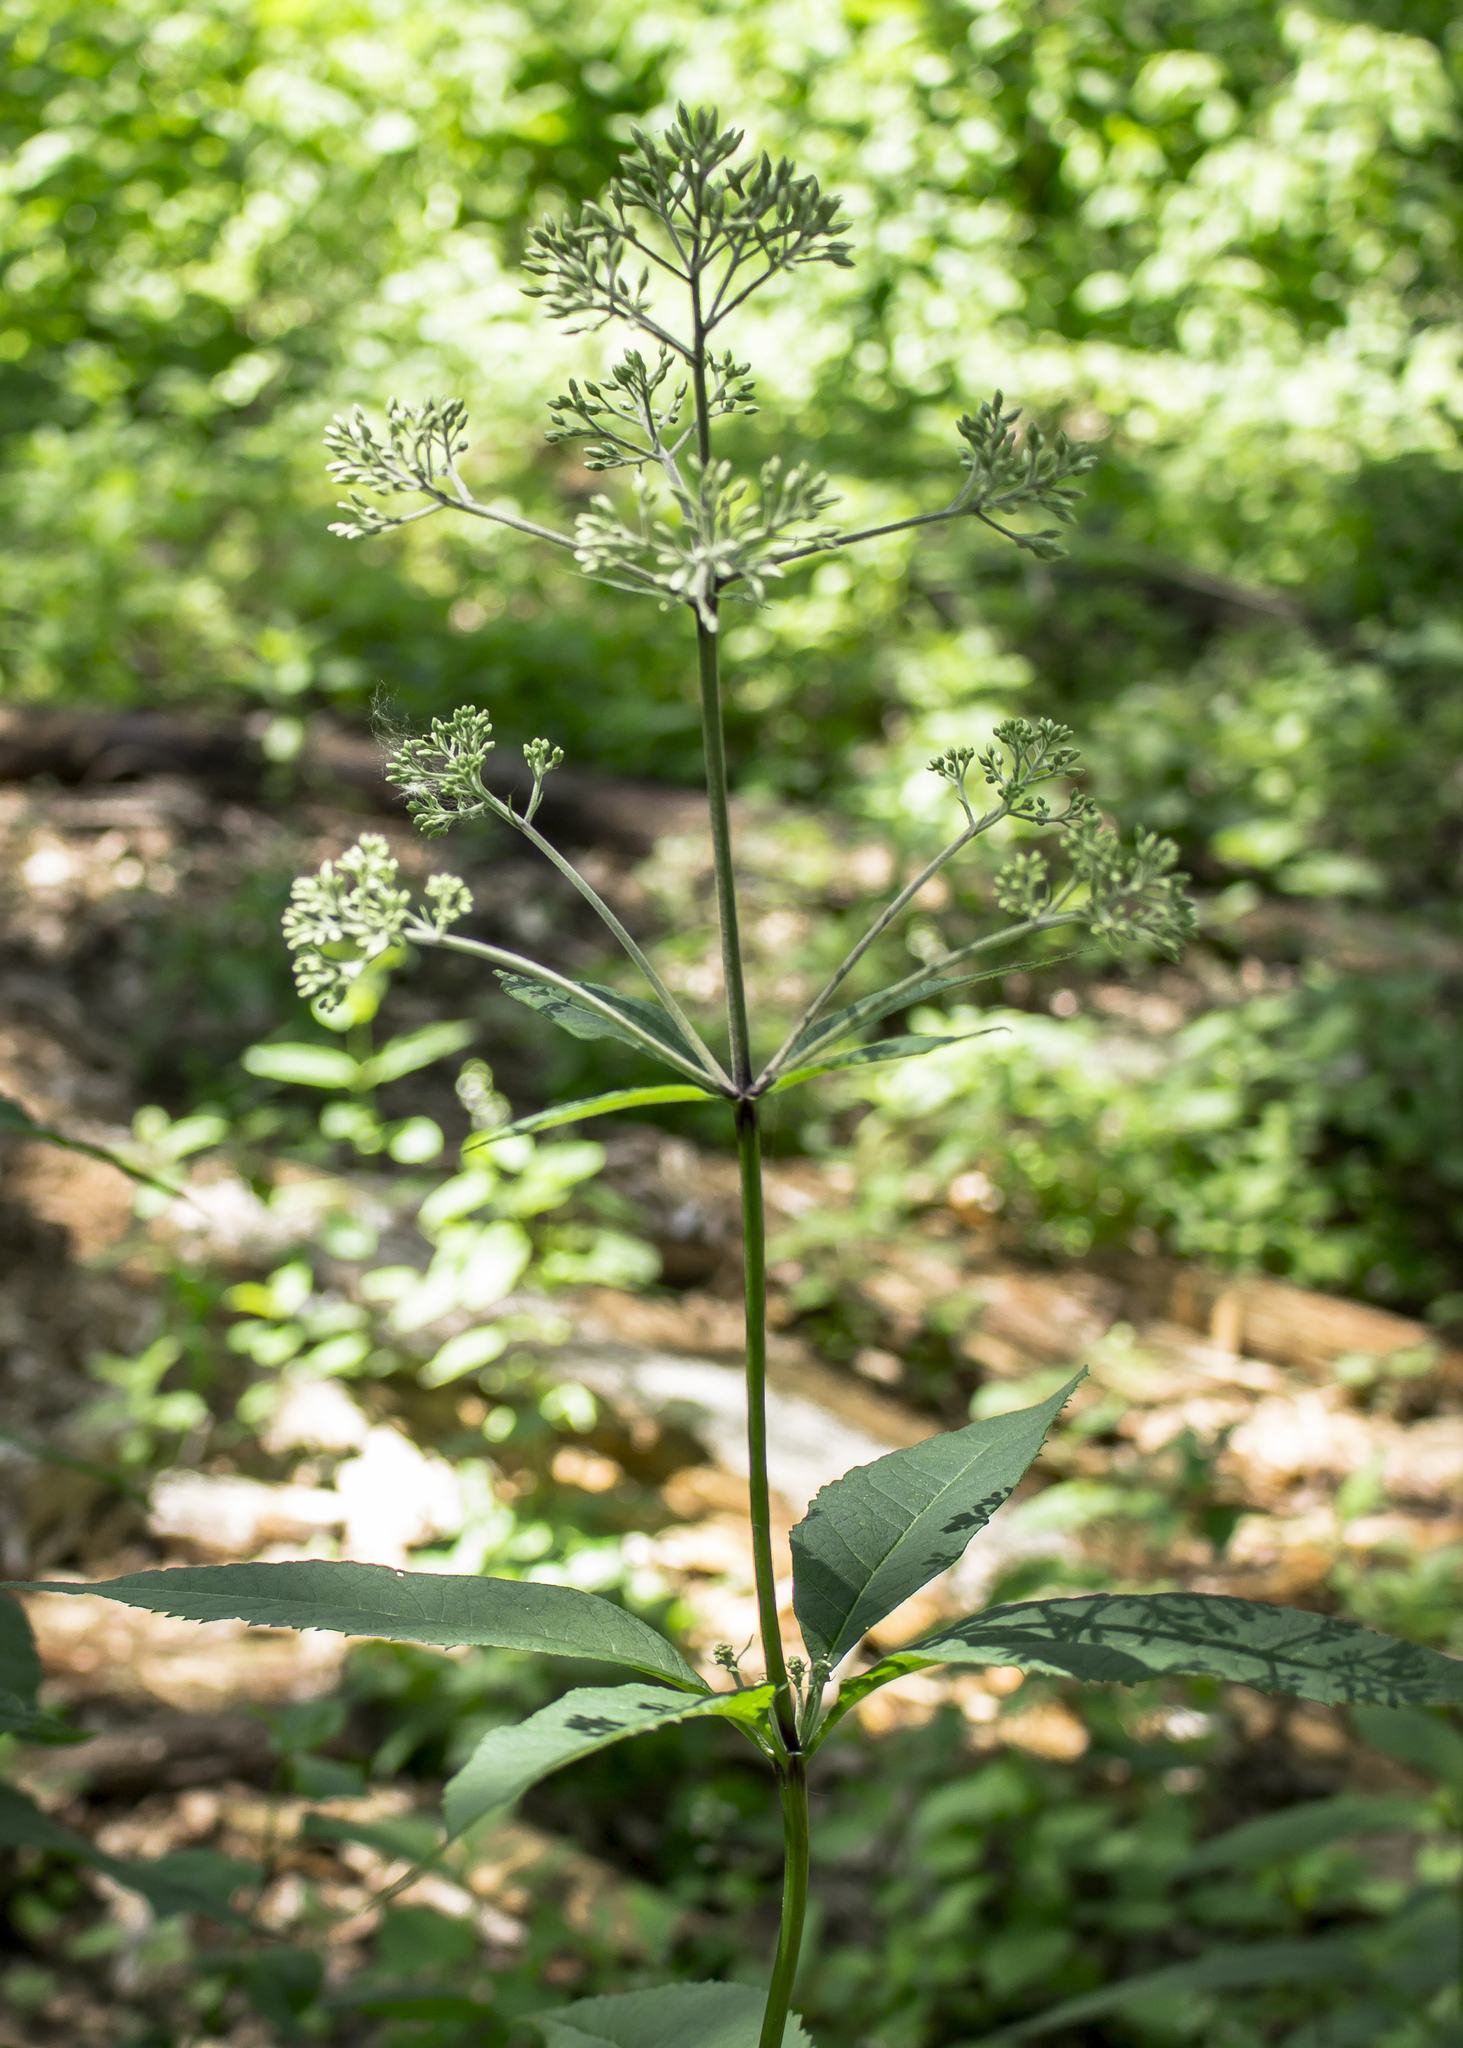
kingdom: Plantae
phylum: Tracheophyta
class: Magnoliopsida
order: Asterales
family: Asteraceae
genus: Eutrochium
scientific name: Eutrochium purpureum
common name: Gravelroot
